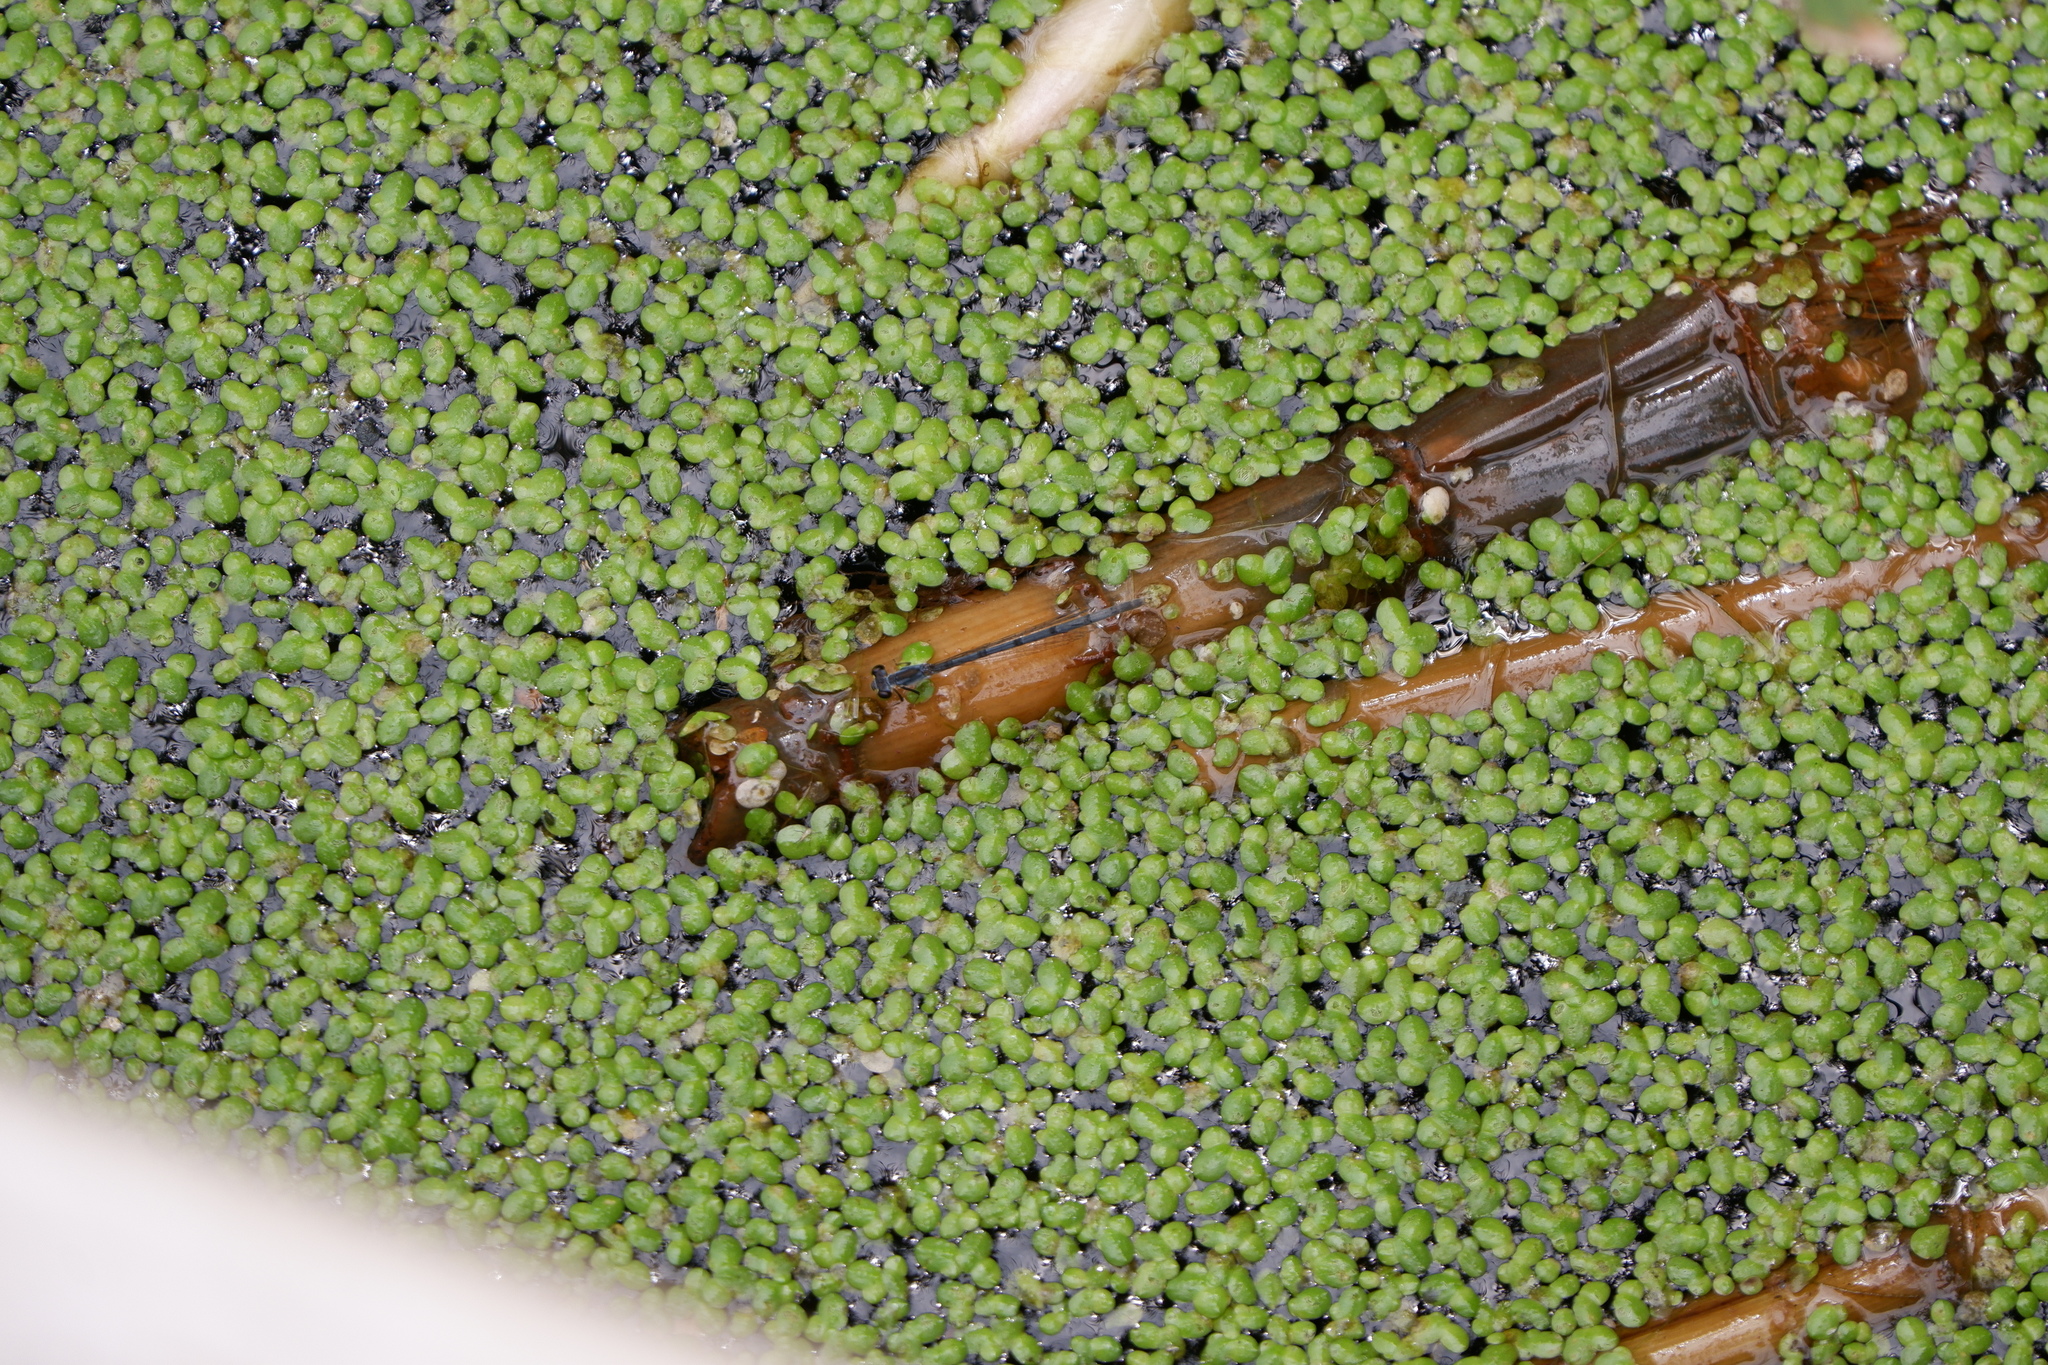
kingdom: Animalia
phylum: Arthropoda
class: Insecta
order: Odonata
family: Coenagrionidae
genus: Ischnura
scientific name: Ischnura posita
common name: Fragile forktail
